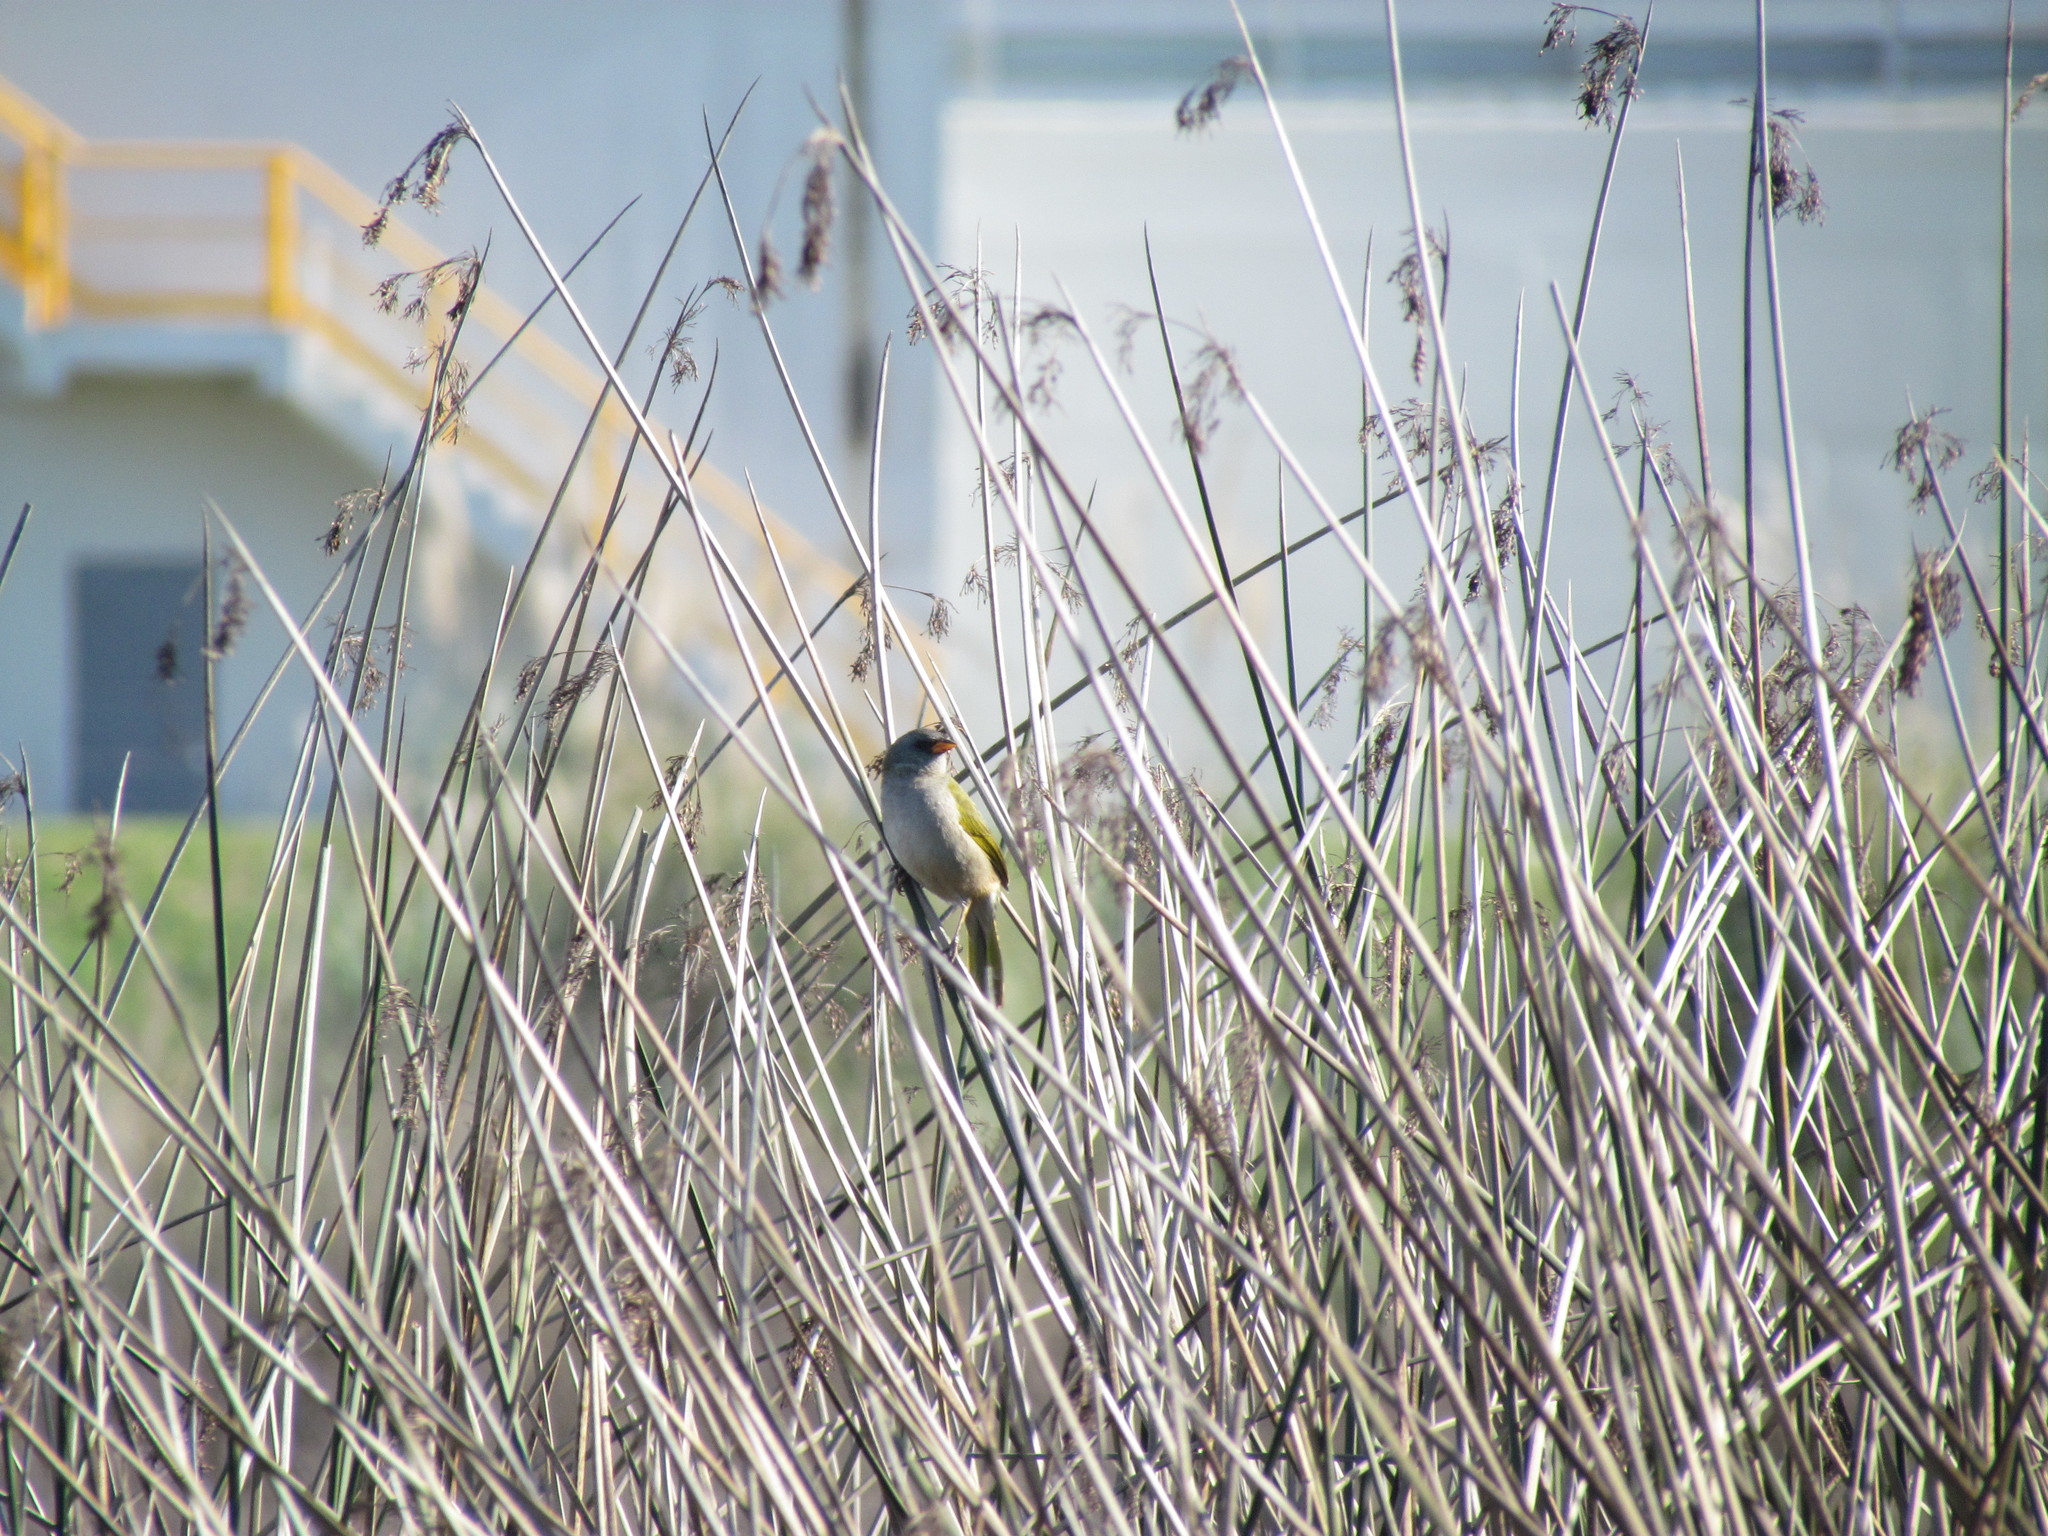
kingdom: Animalia
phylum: Chordata
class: Aves
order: Passeriformes
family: Thraupidae
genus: Embernagra
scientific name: Embernagra platensis
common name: Pampa finch
